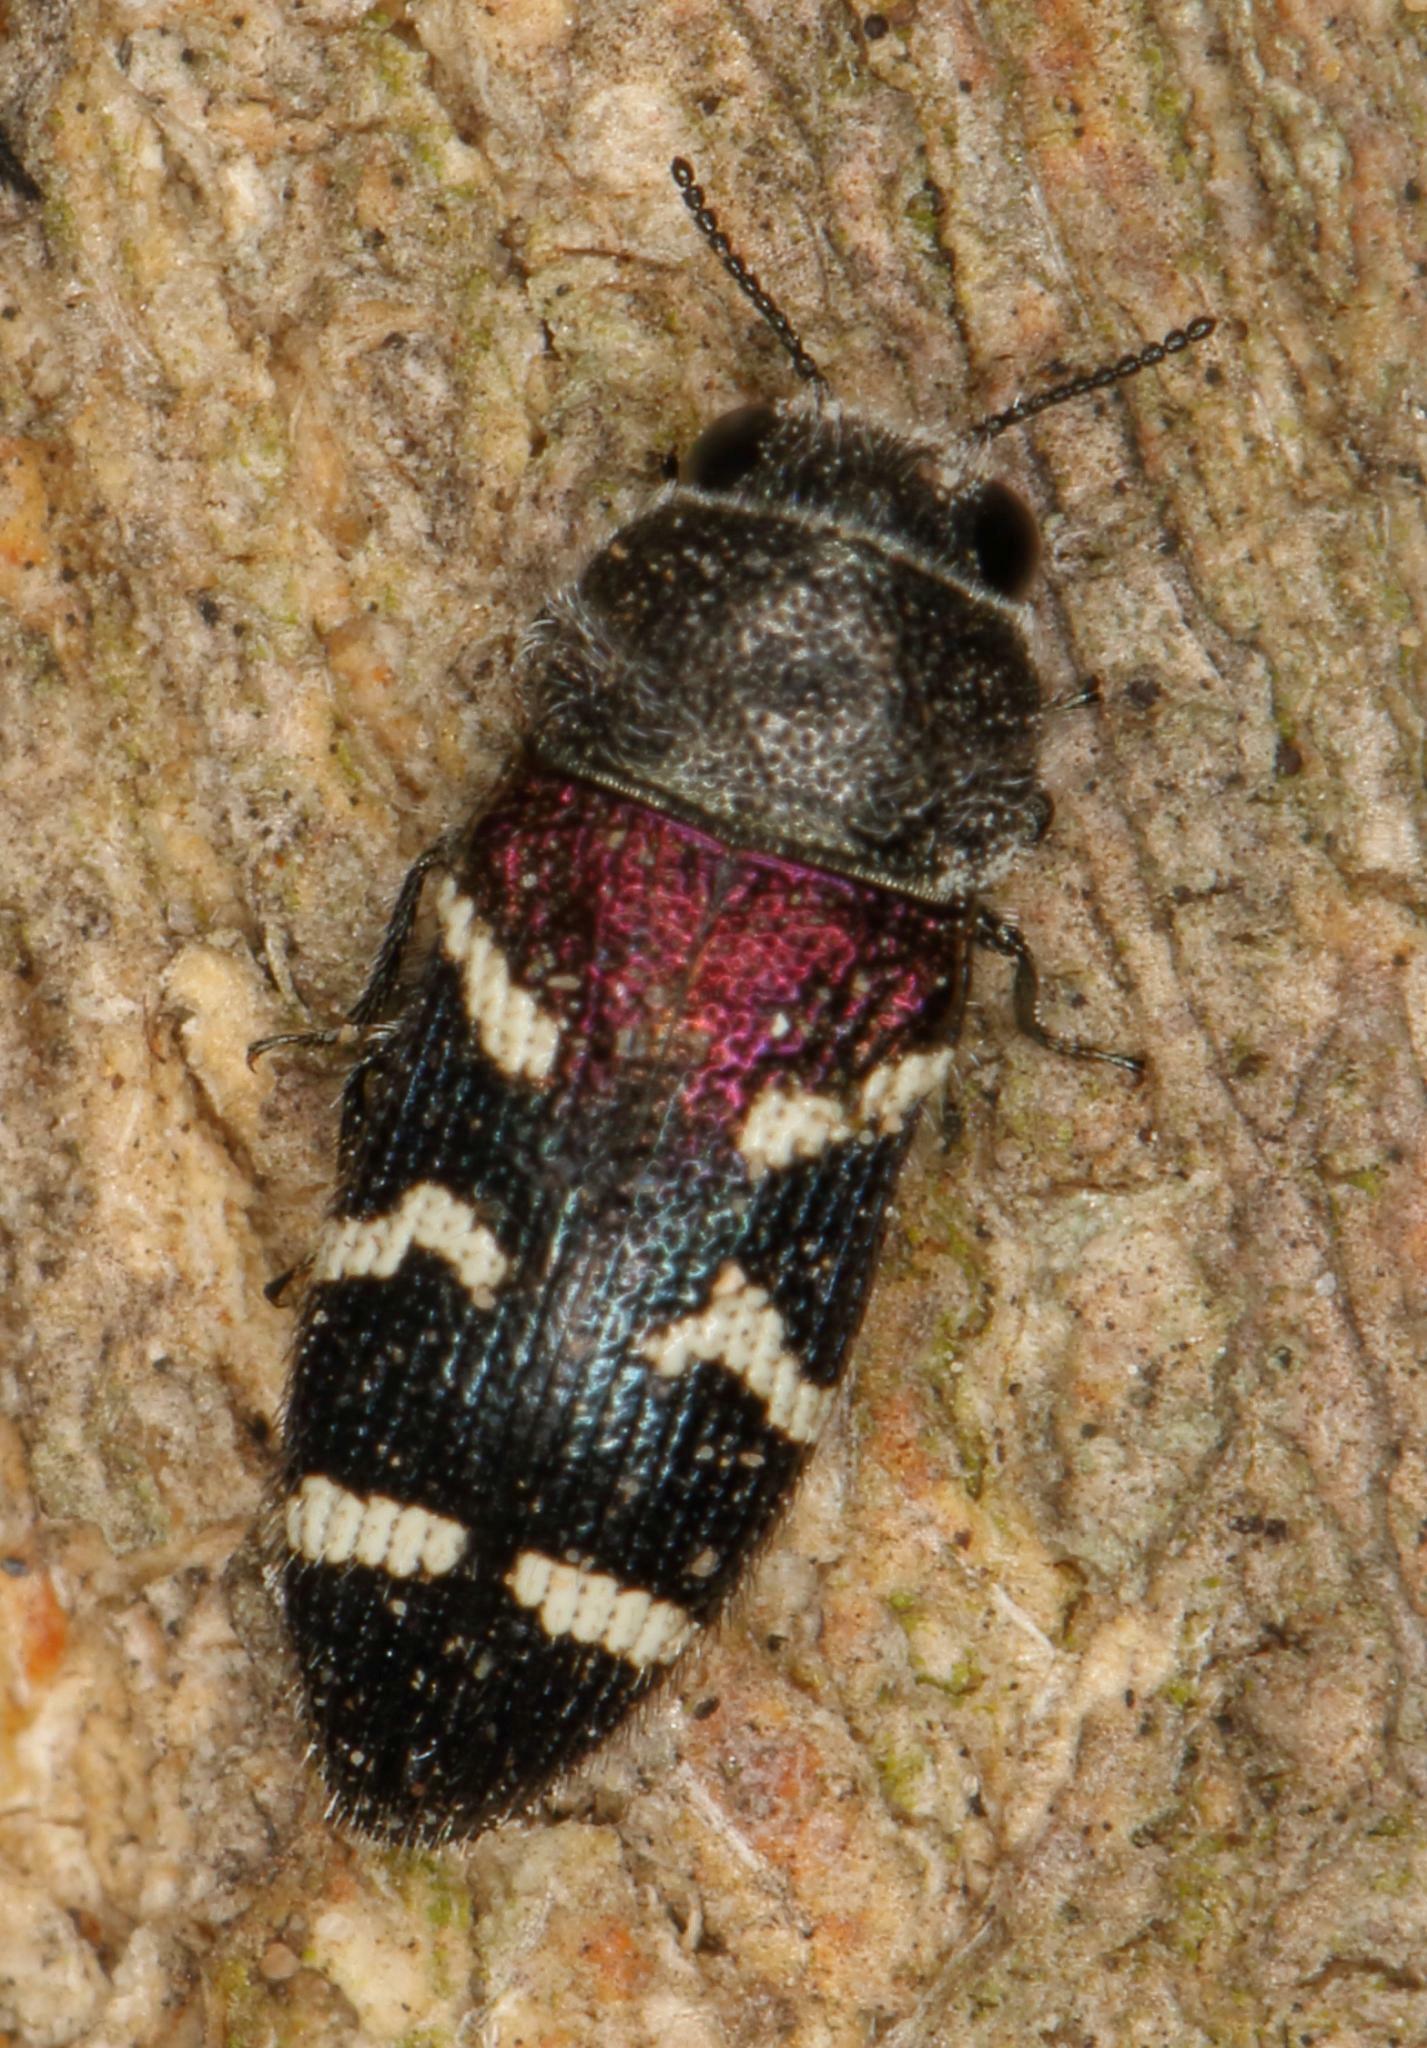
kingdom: Animalia
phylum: Arthropoda
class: Insecta
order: Coleoptera
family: Buprestidae
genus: Acmaeodera
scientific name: Acmaeodera virgo
